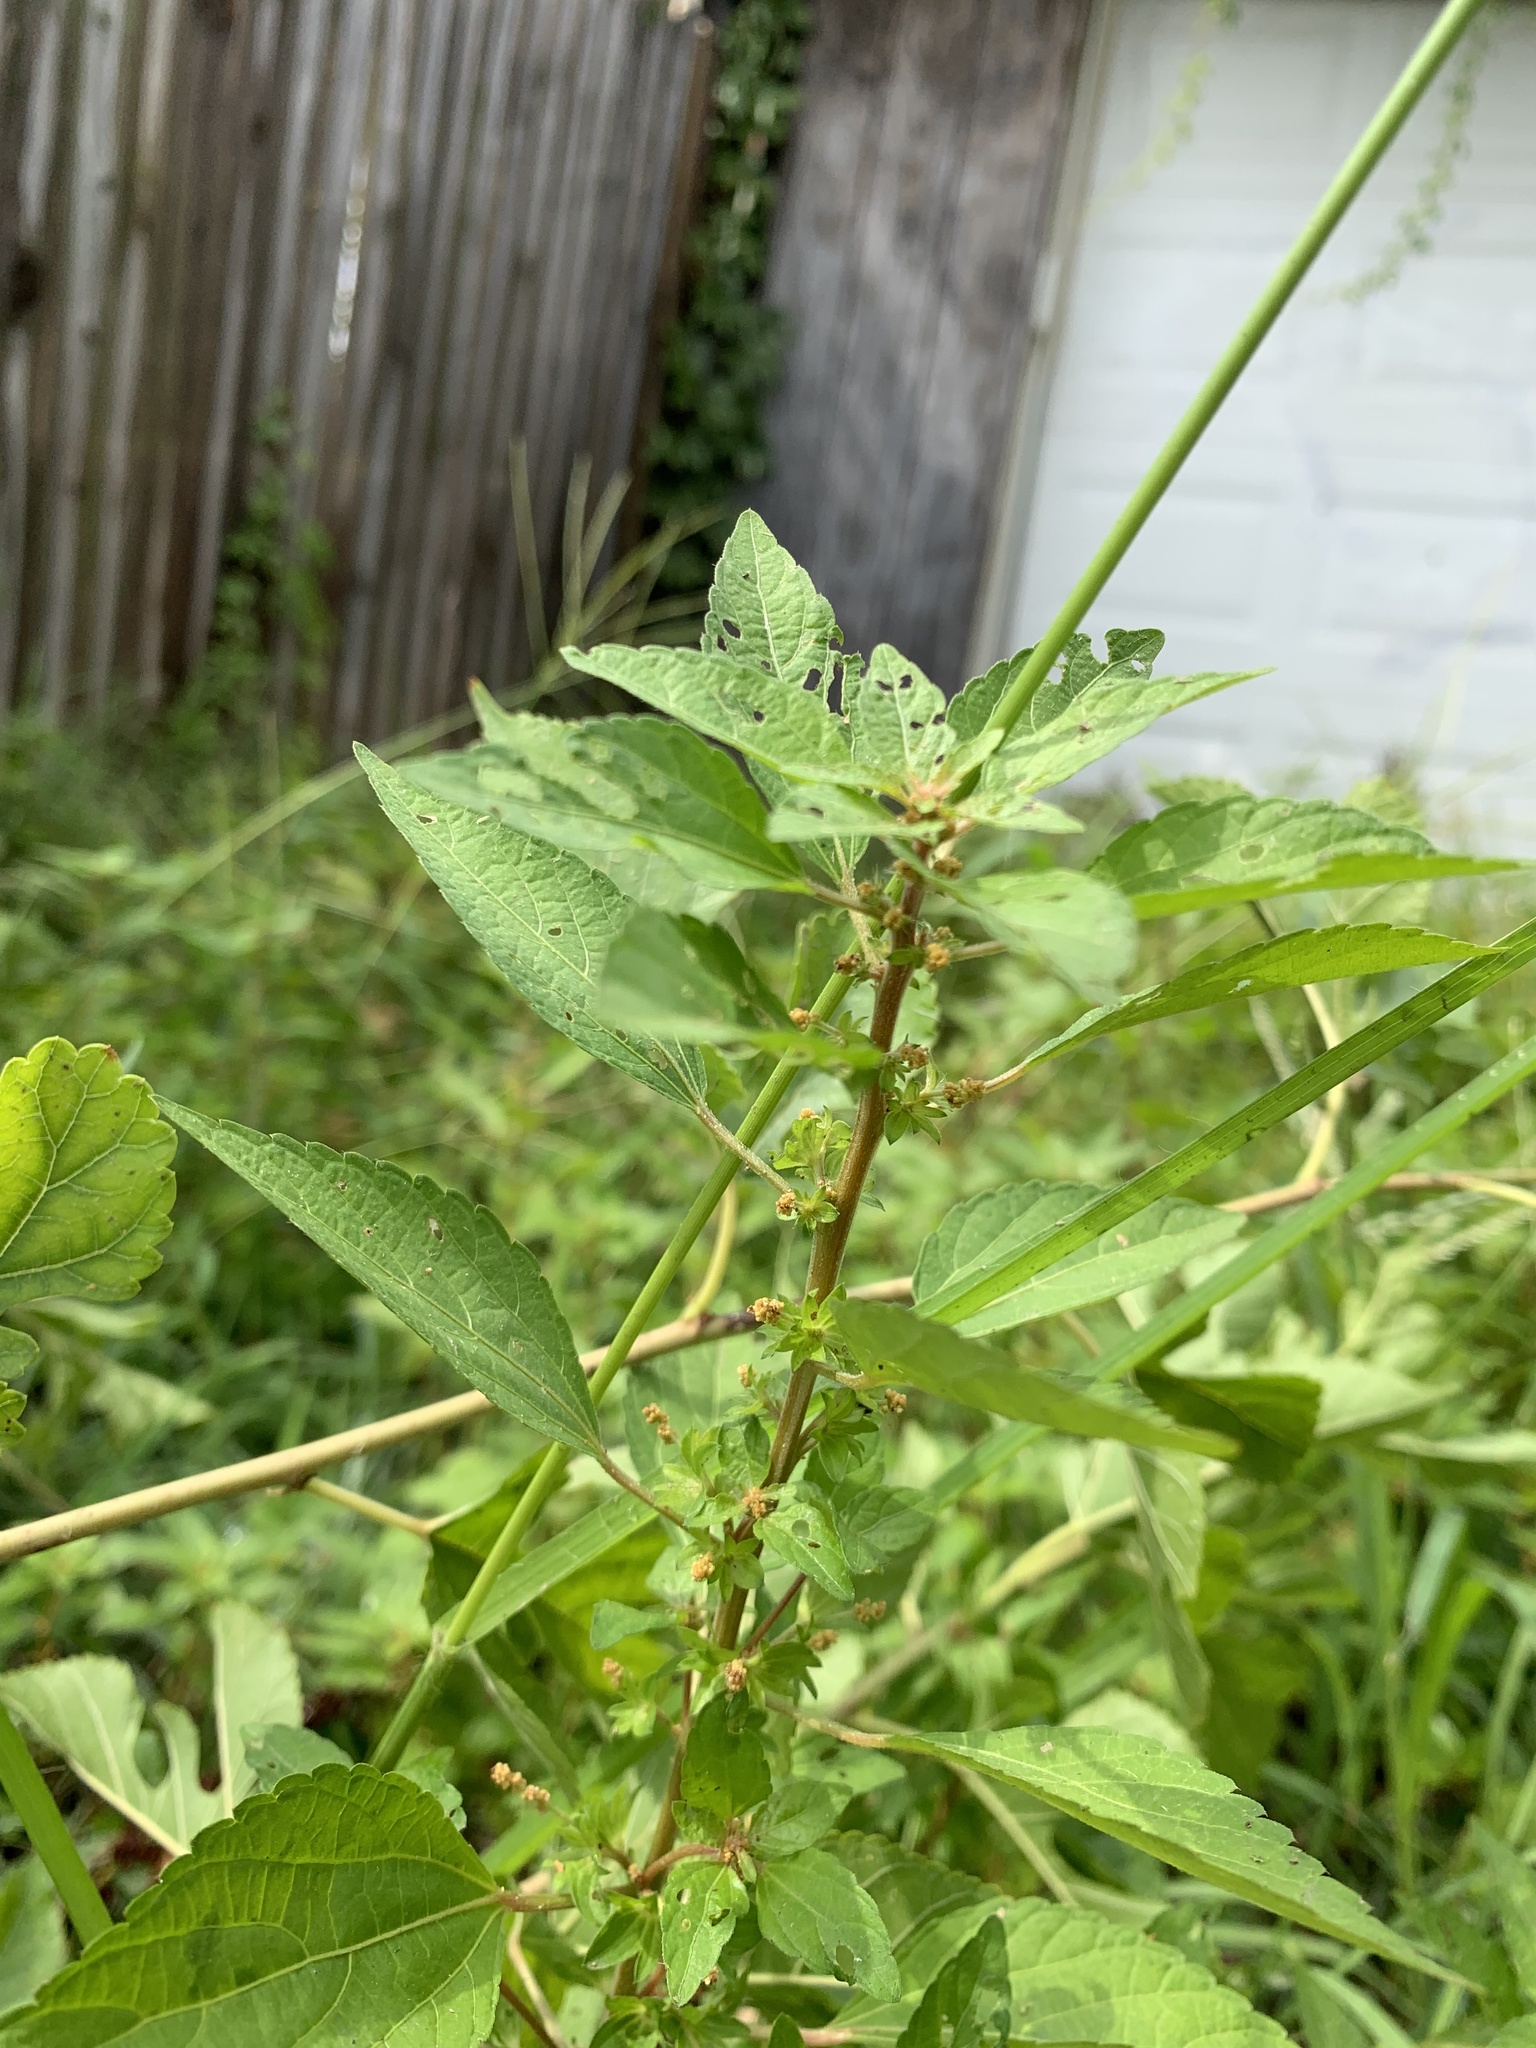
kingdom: Plantae
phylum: Tracheophyta
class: Magnoliopsida
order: Malpighiales
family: Euphorbiaceae
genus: Acalypha
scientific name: Acalypha rhomboidea
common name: Rhombic copperleaf
